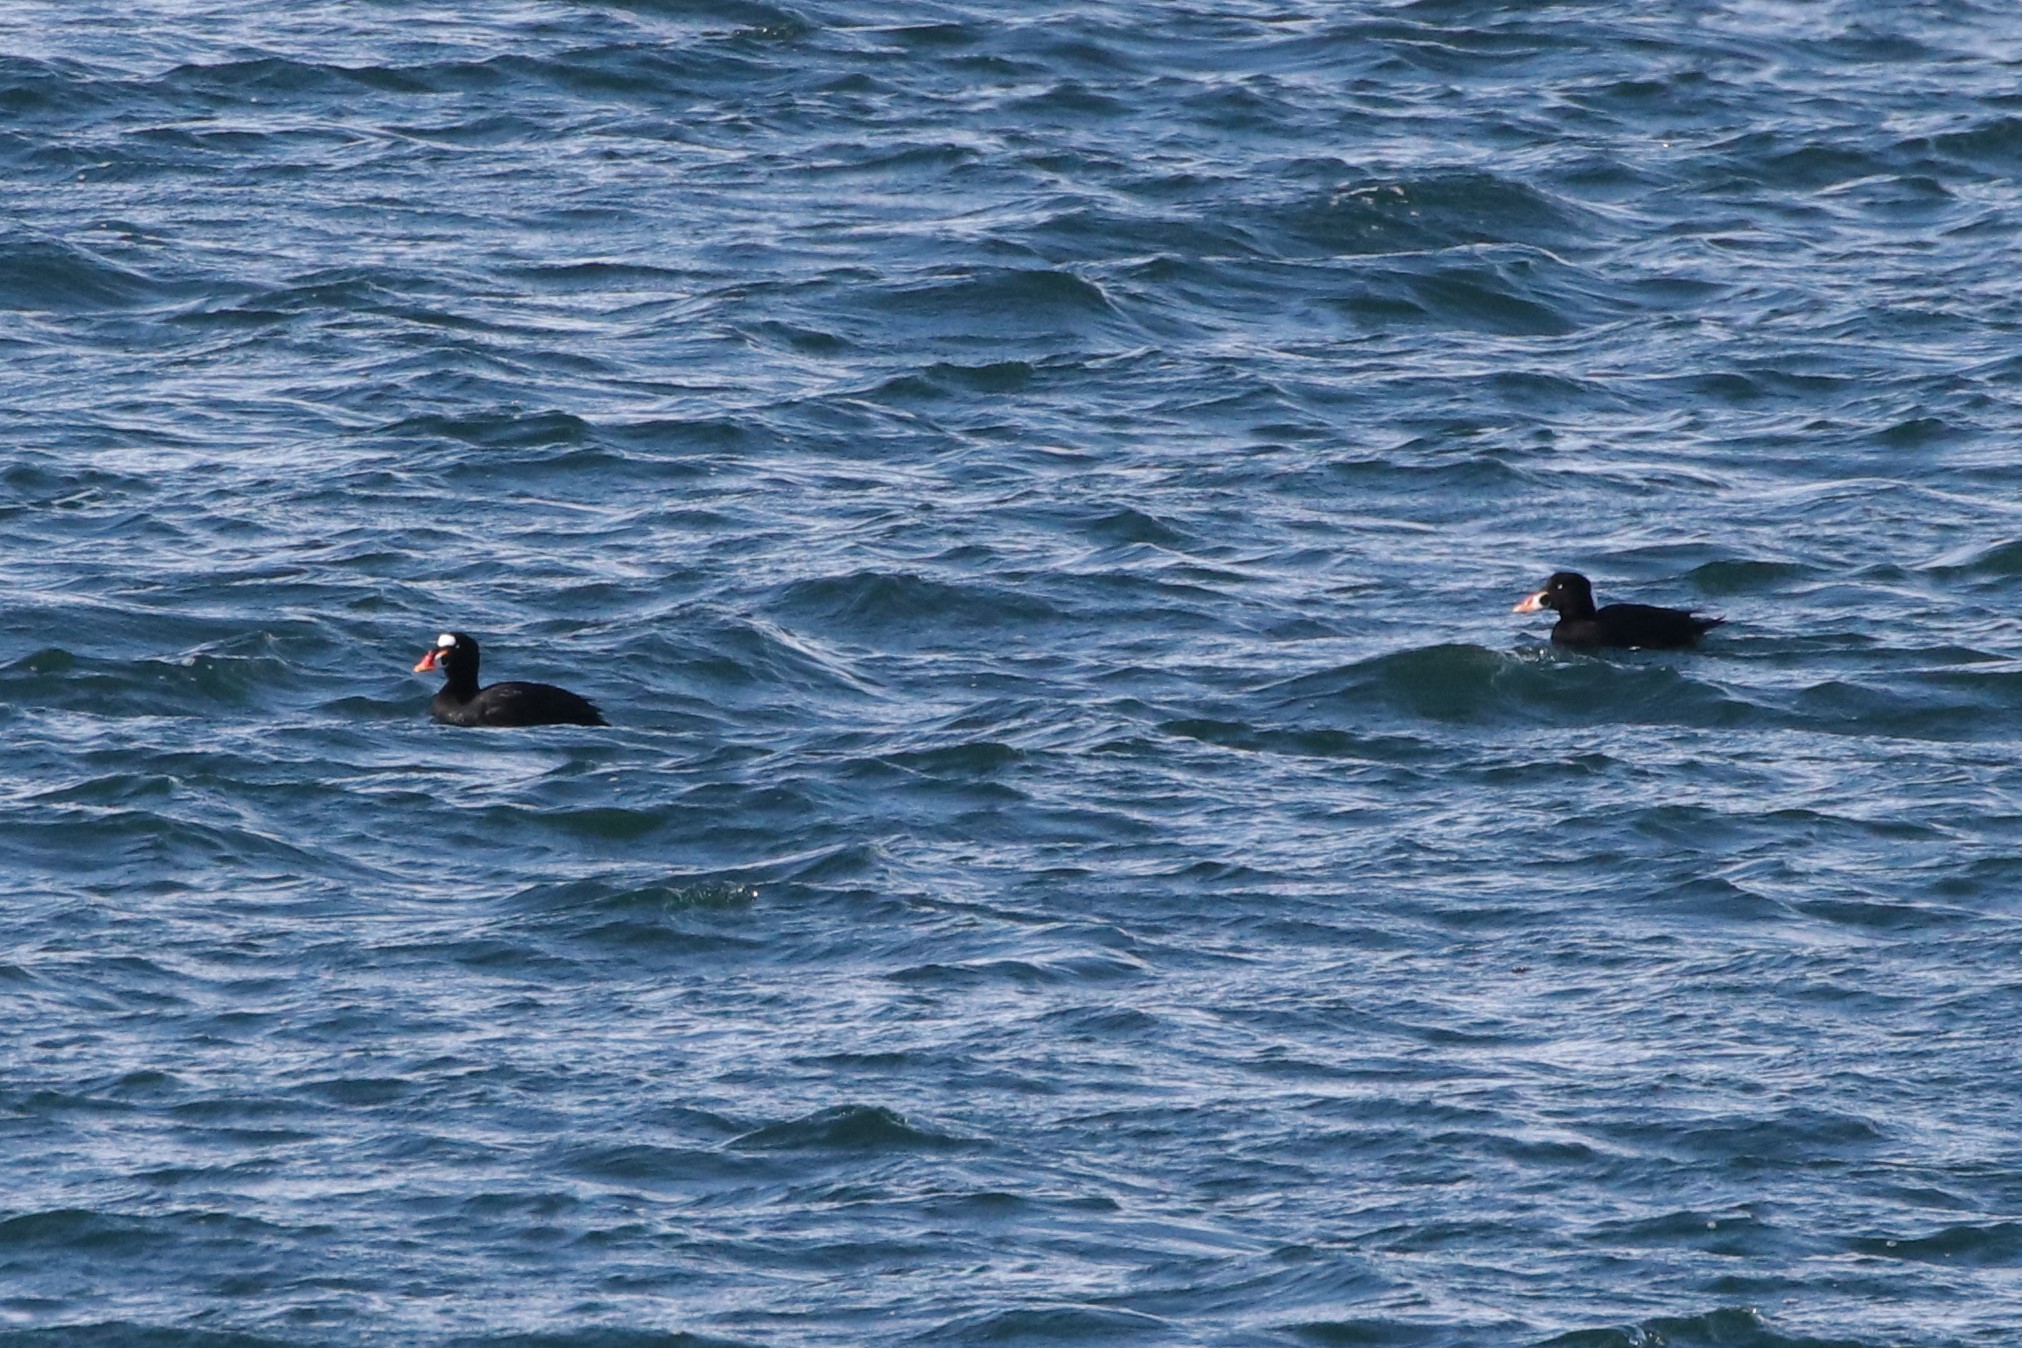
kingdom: Animalia
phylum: Chordata
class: Aves
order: Anseriformes
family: Anatidae
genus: Melanitta
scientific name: Melanitta perspicillata
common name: Surf scoter
